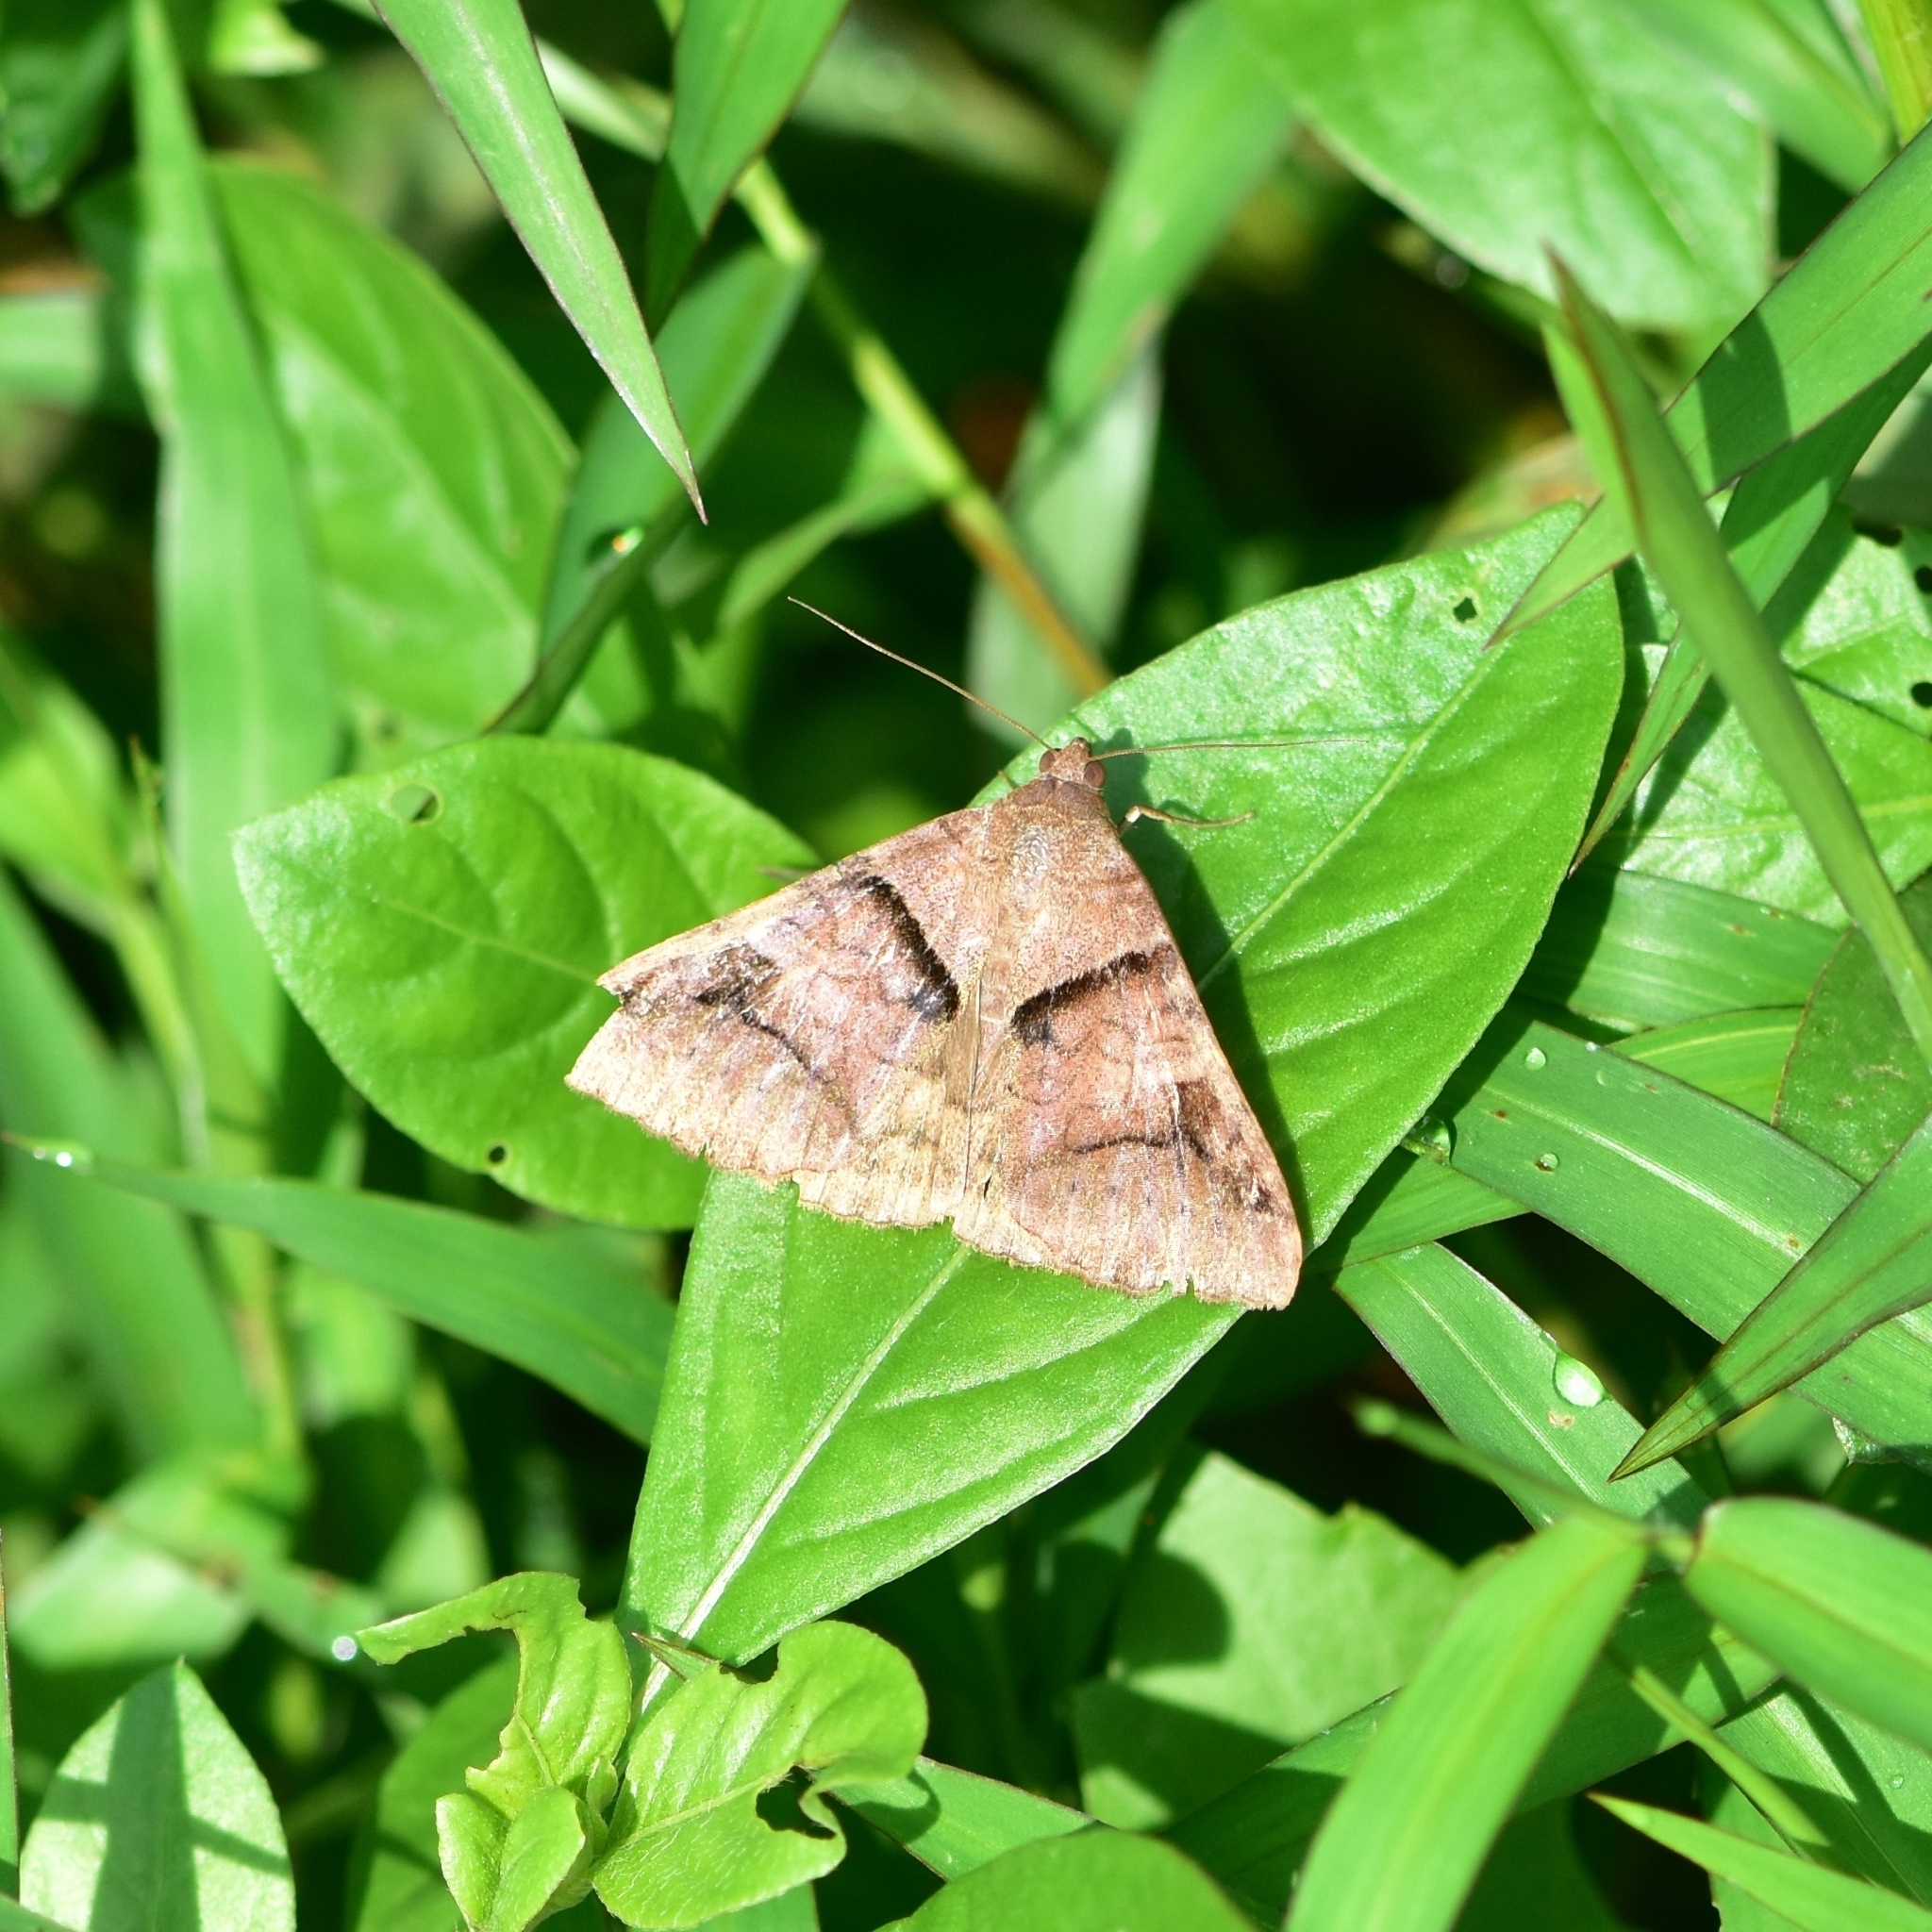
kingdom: Animalia
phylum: Arthropoda
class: Insecta
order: Lepidoptera
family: Erebidae
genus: Mocis
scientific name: Mocis undata
